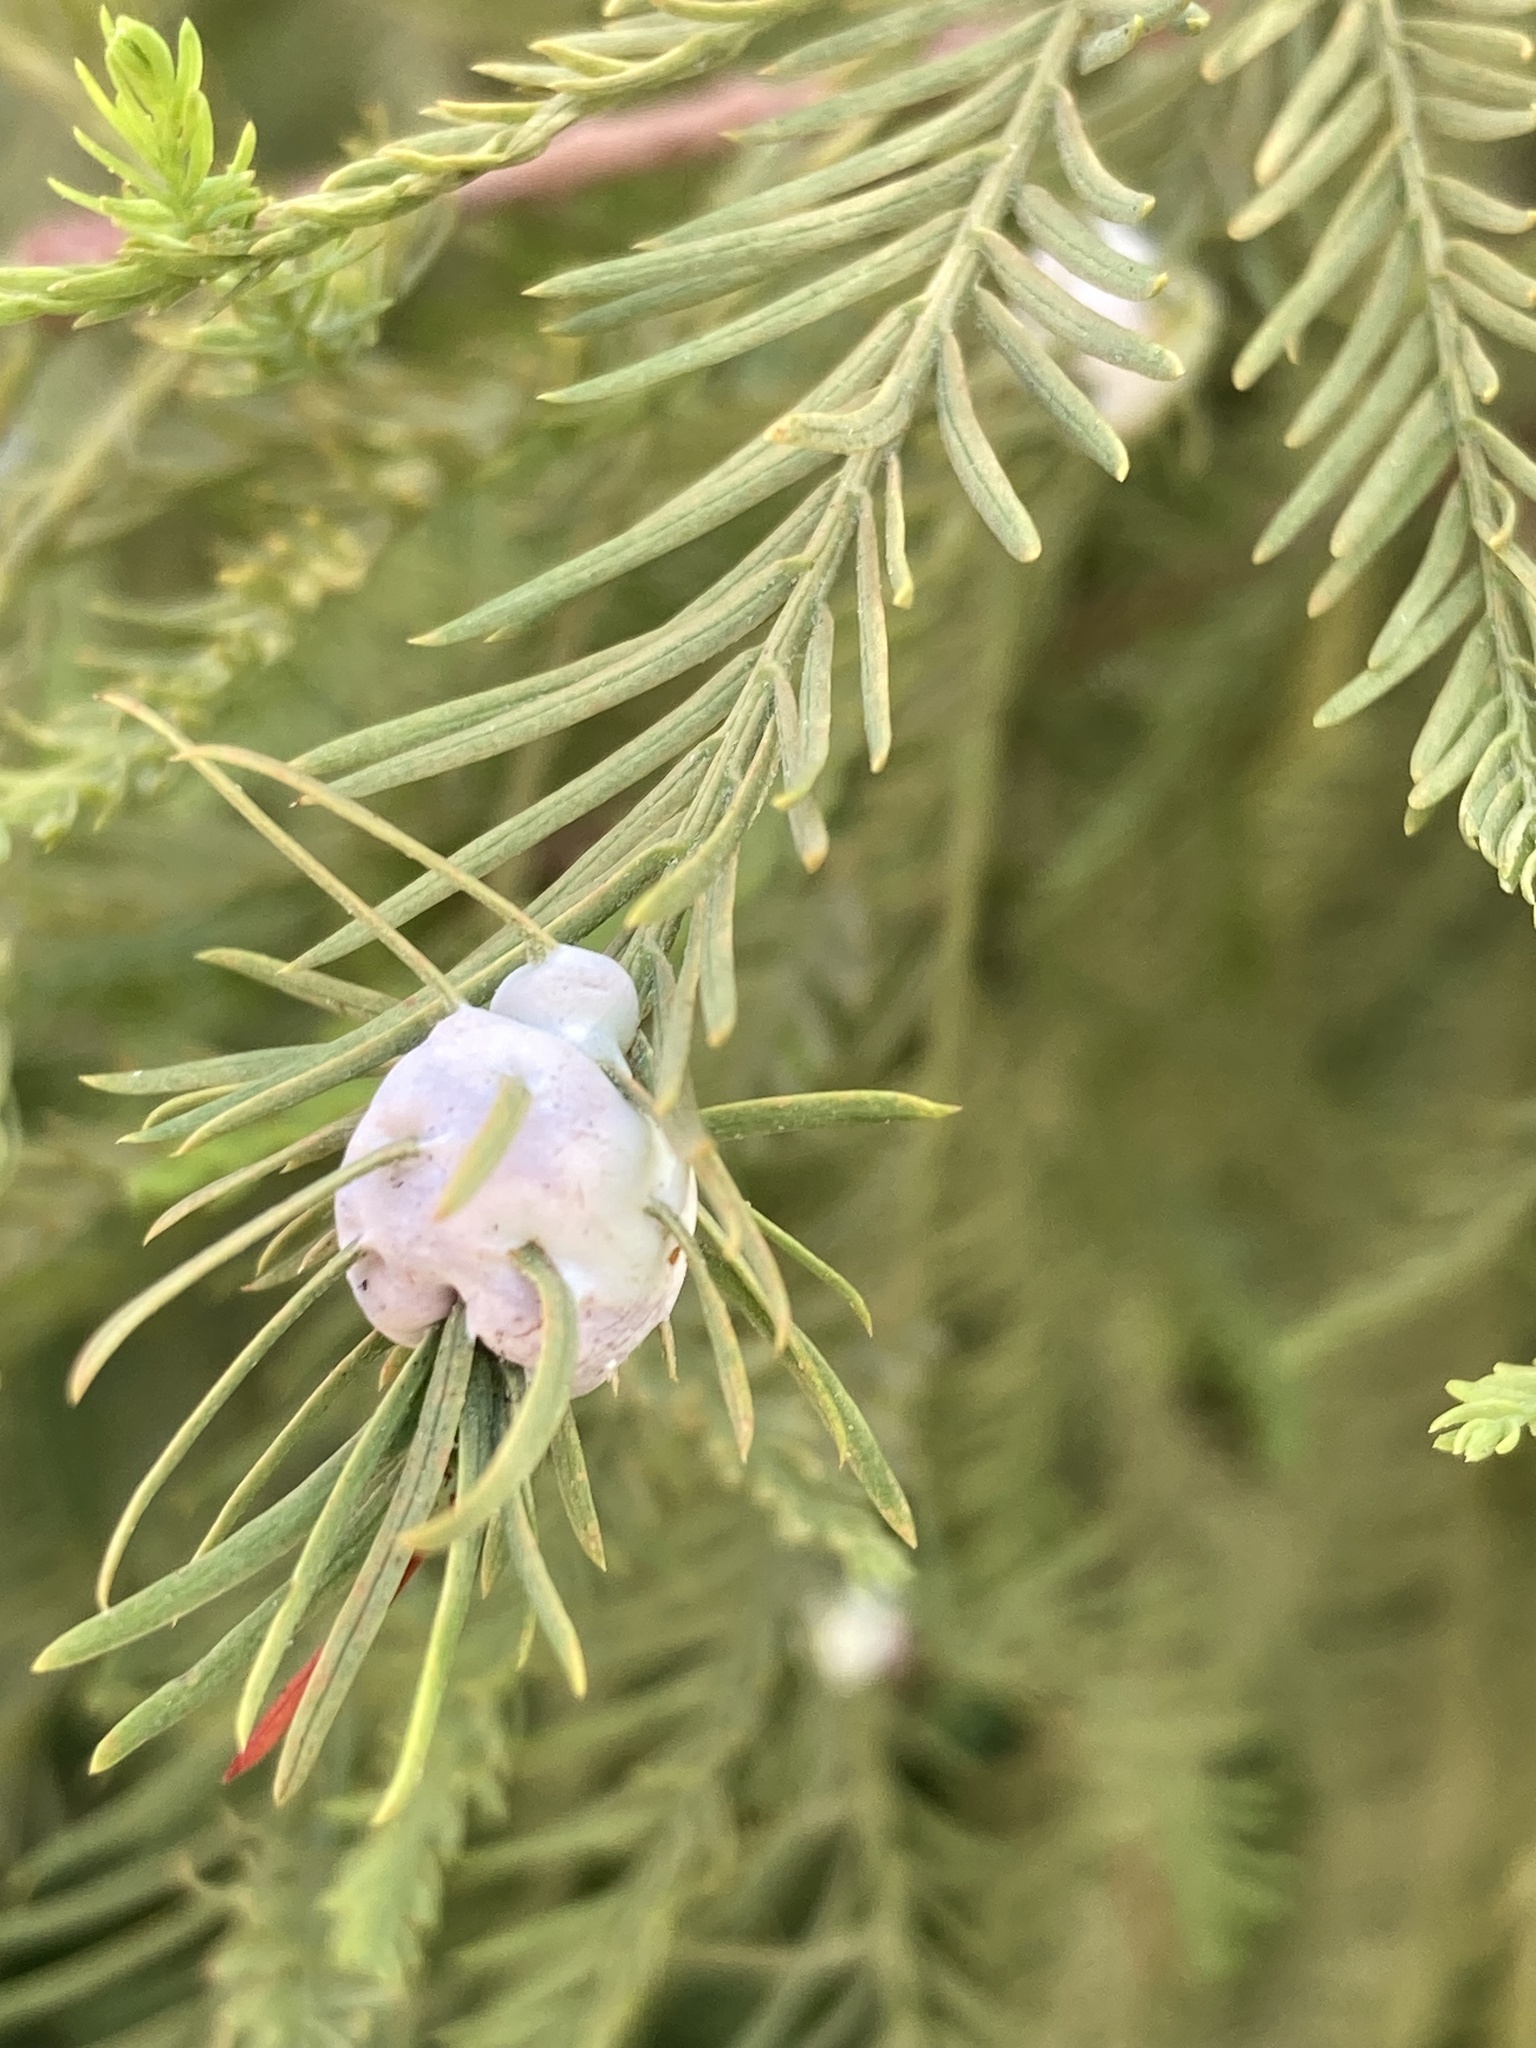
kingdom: Animalia
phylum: Arthropoda
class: Insecta
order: Diptera
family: Cecidomyiidae
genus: Taxodiomyia
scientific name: Taxodiomyia cupressiananassa
